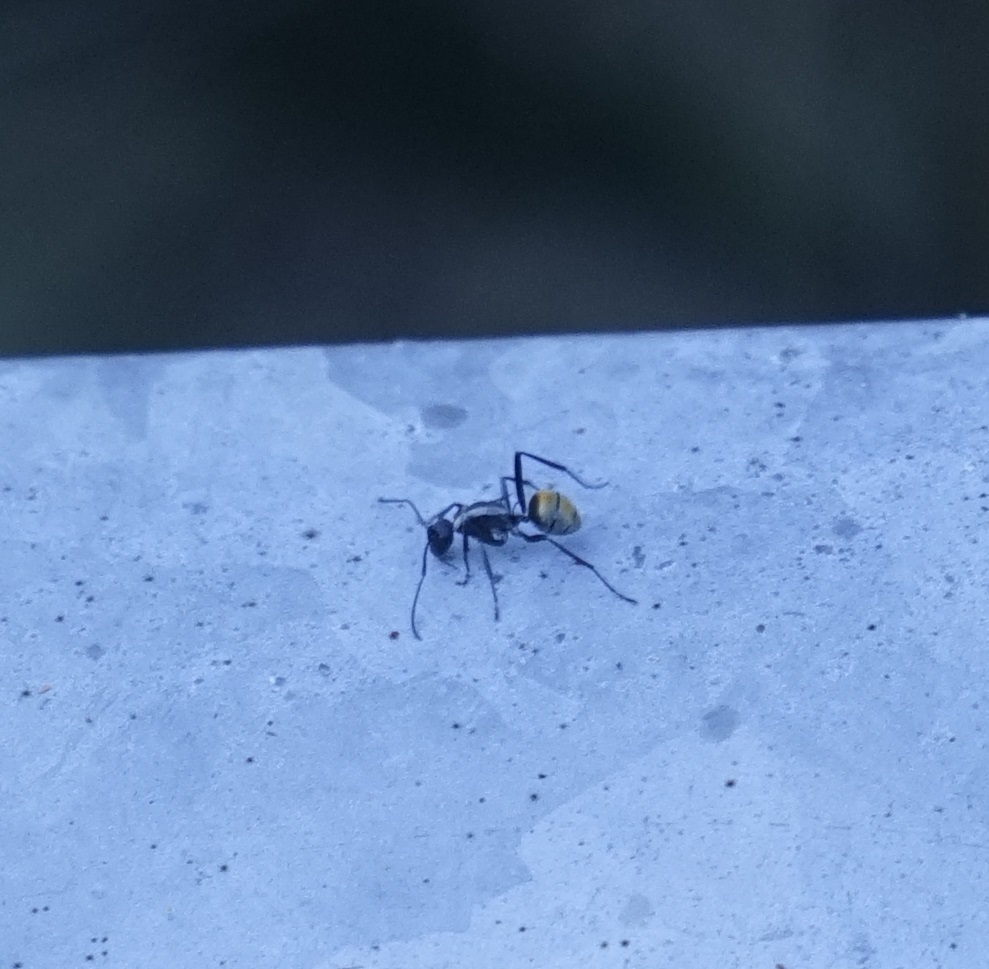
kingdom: Animalia
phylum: Arthropoda
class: Insecta
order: Hymenoptera
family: Formicidae
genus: Polyrhachis
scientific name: Polyrhachis ammon
